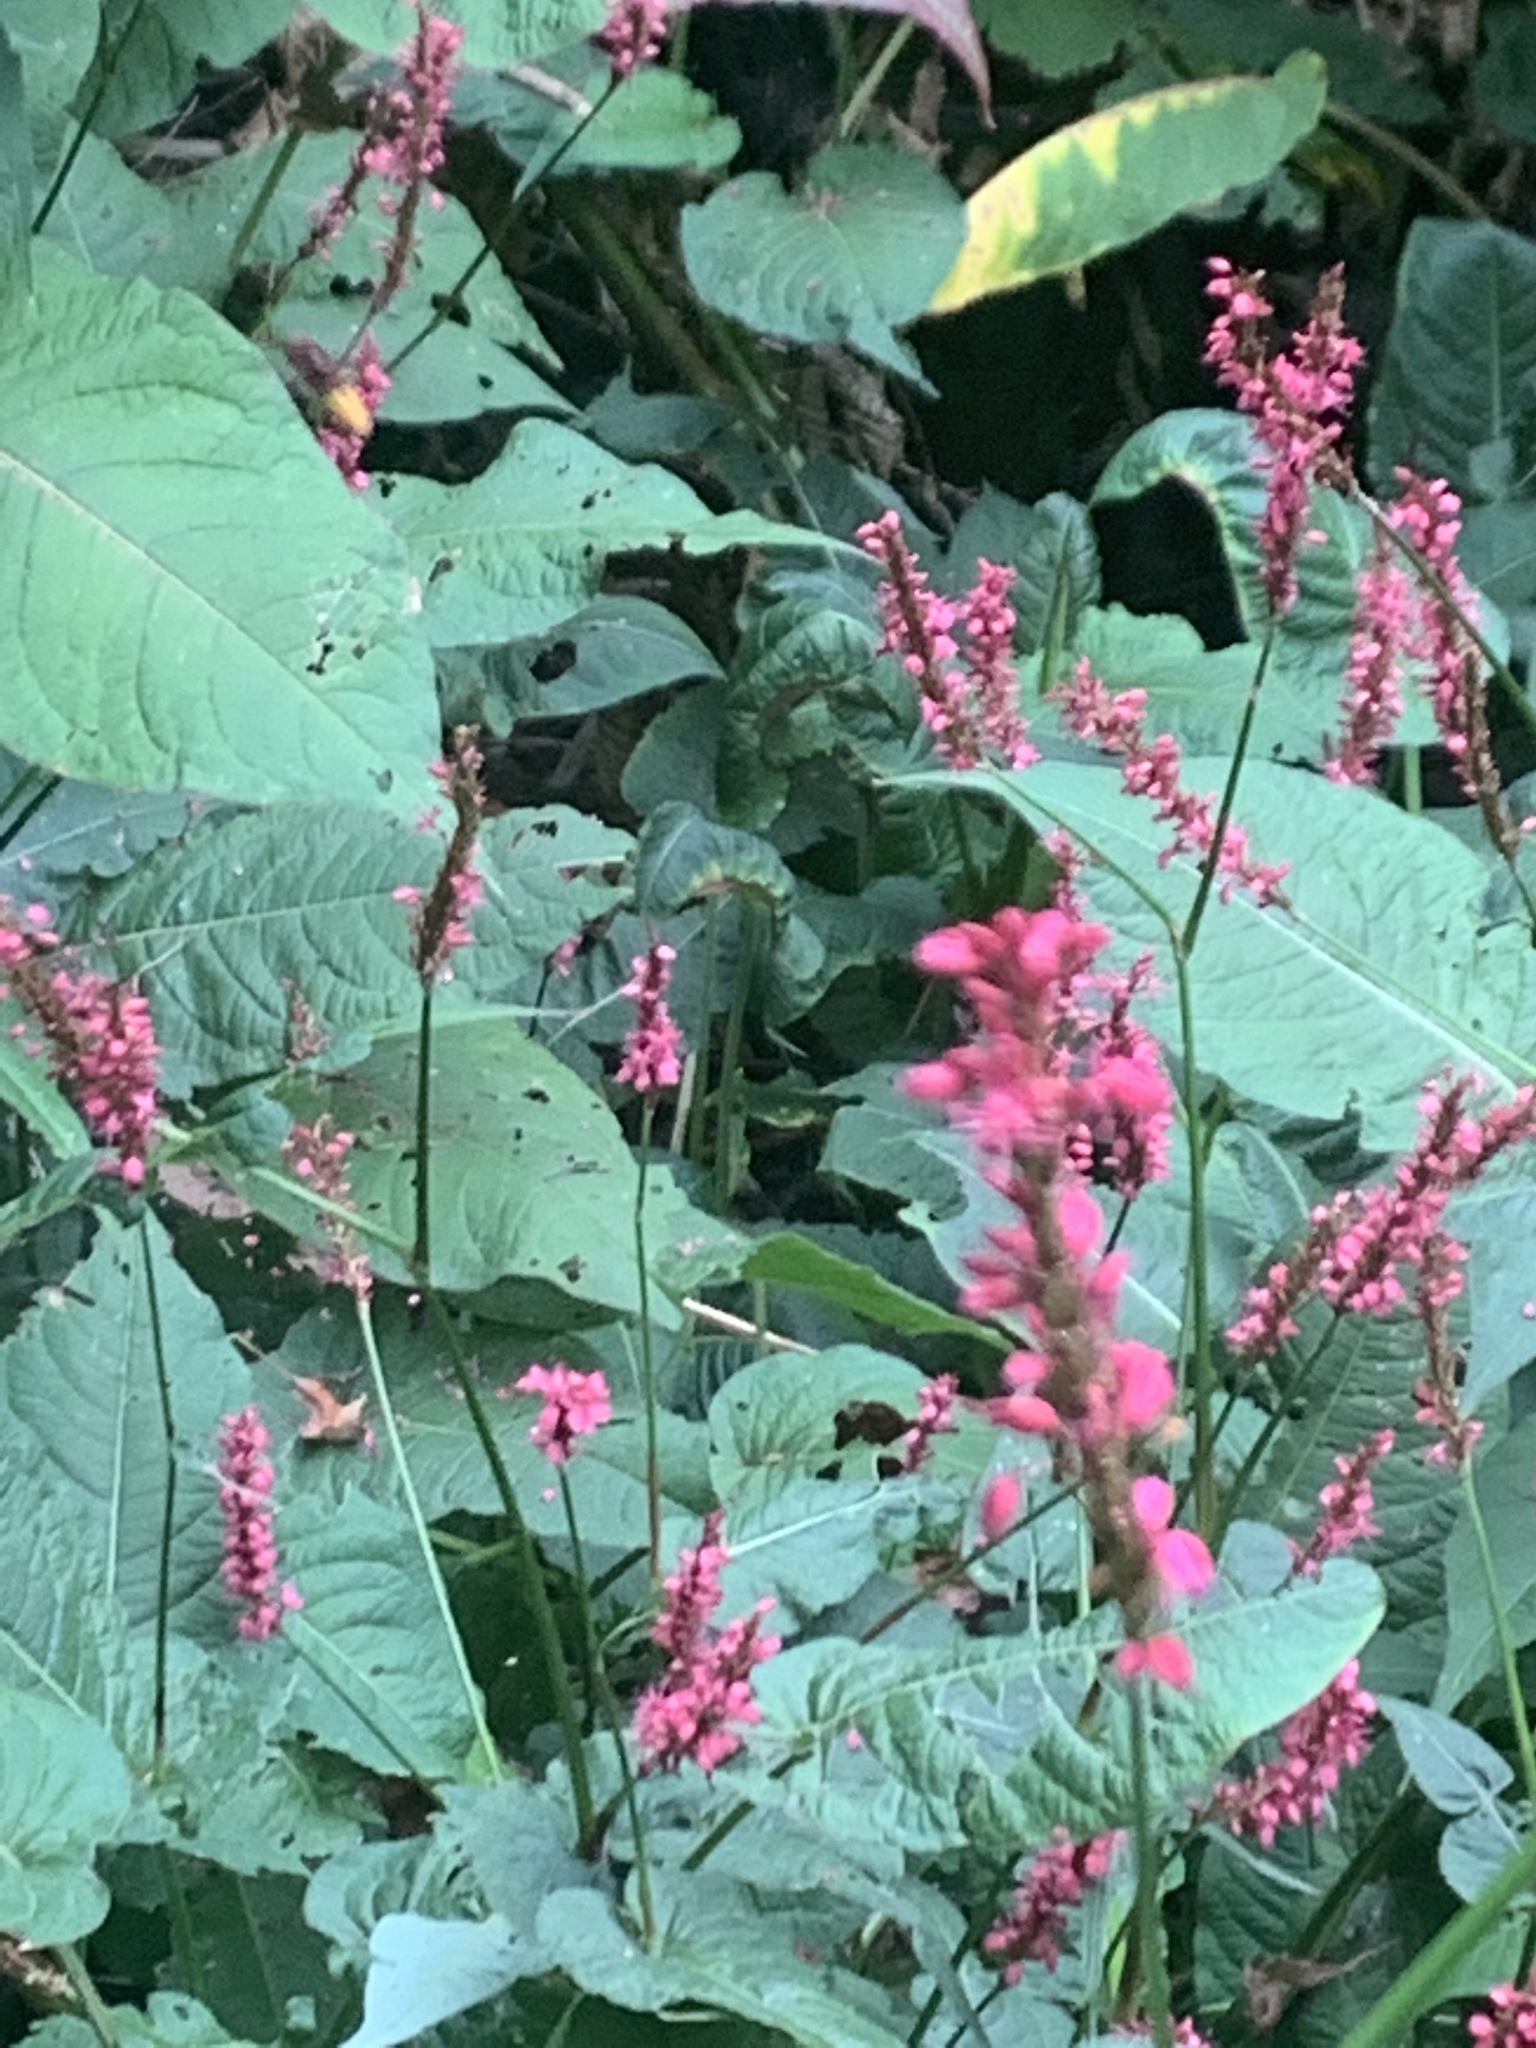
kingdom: Animalia
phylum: Arthropoda
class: Insecta
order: Hymenoptera
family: Vespidae
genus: Vespa
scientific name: Vespa crabro
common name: Hornet
